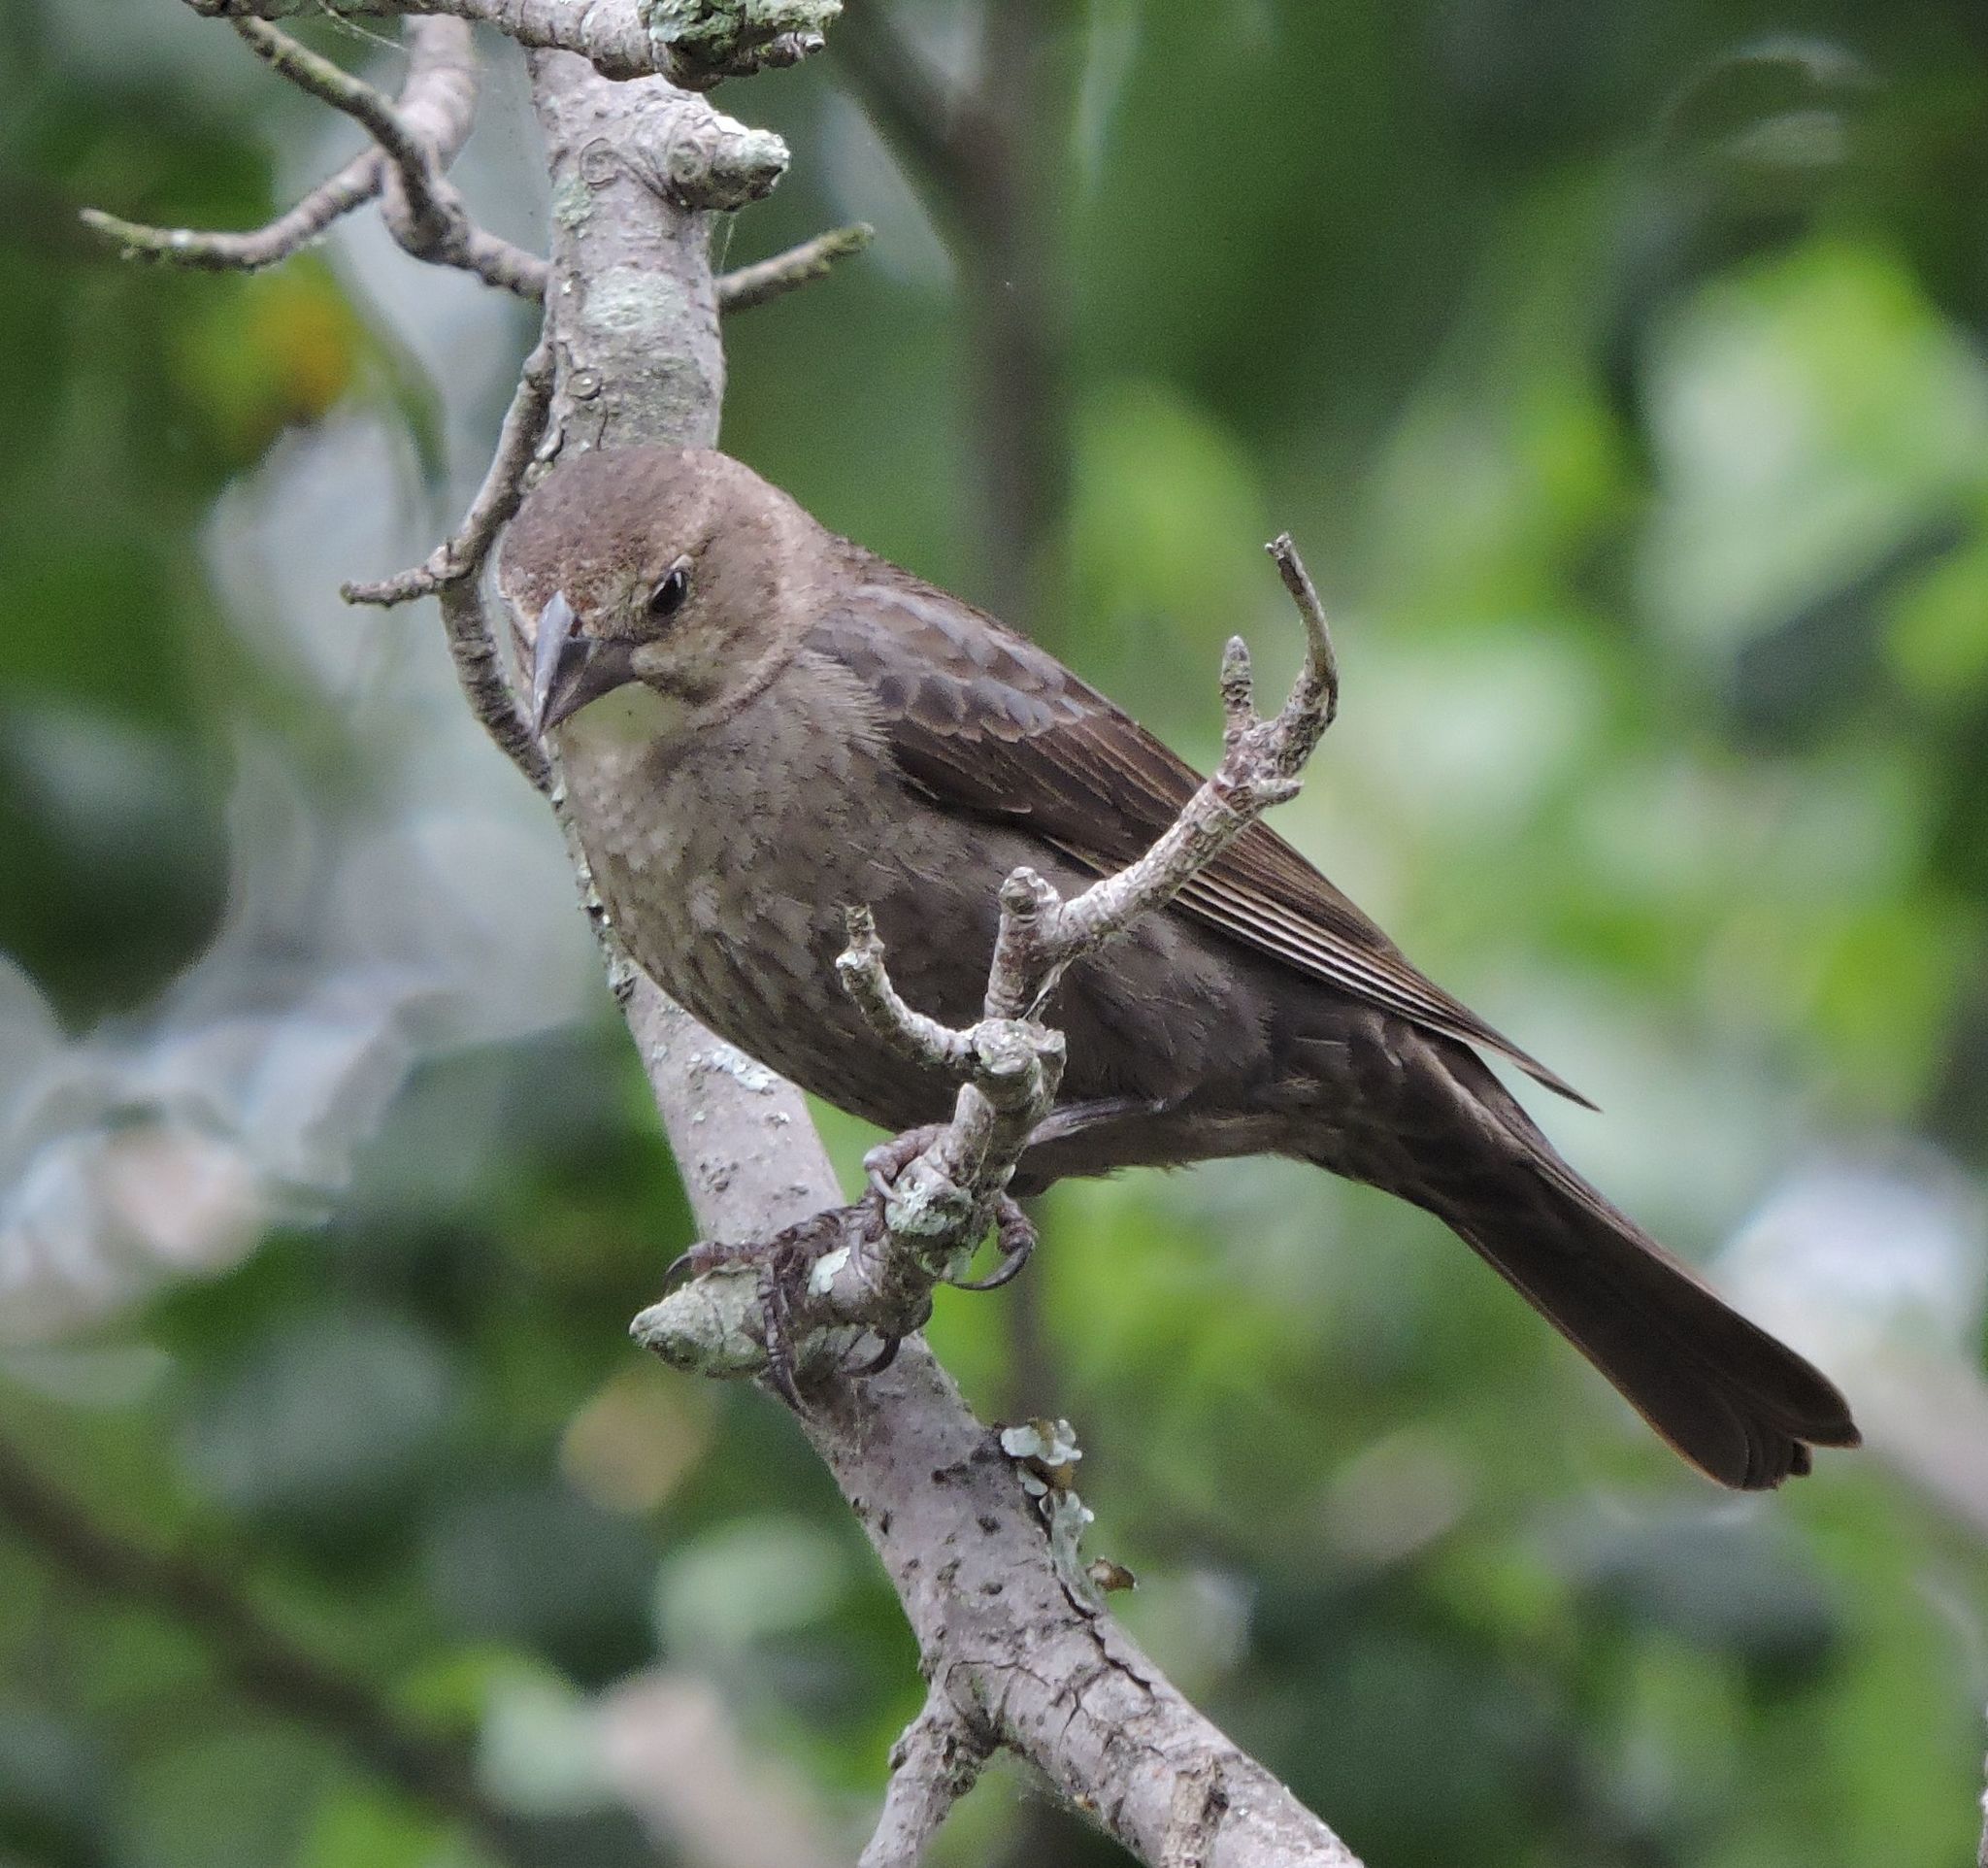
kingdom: Animalia
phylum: Chordata
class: Aves
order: Passeriformes
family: Icteridae
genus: Molothrus
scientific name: Molothrus ater
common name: Brown-headed cowbird
